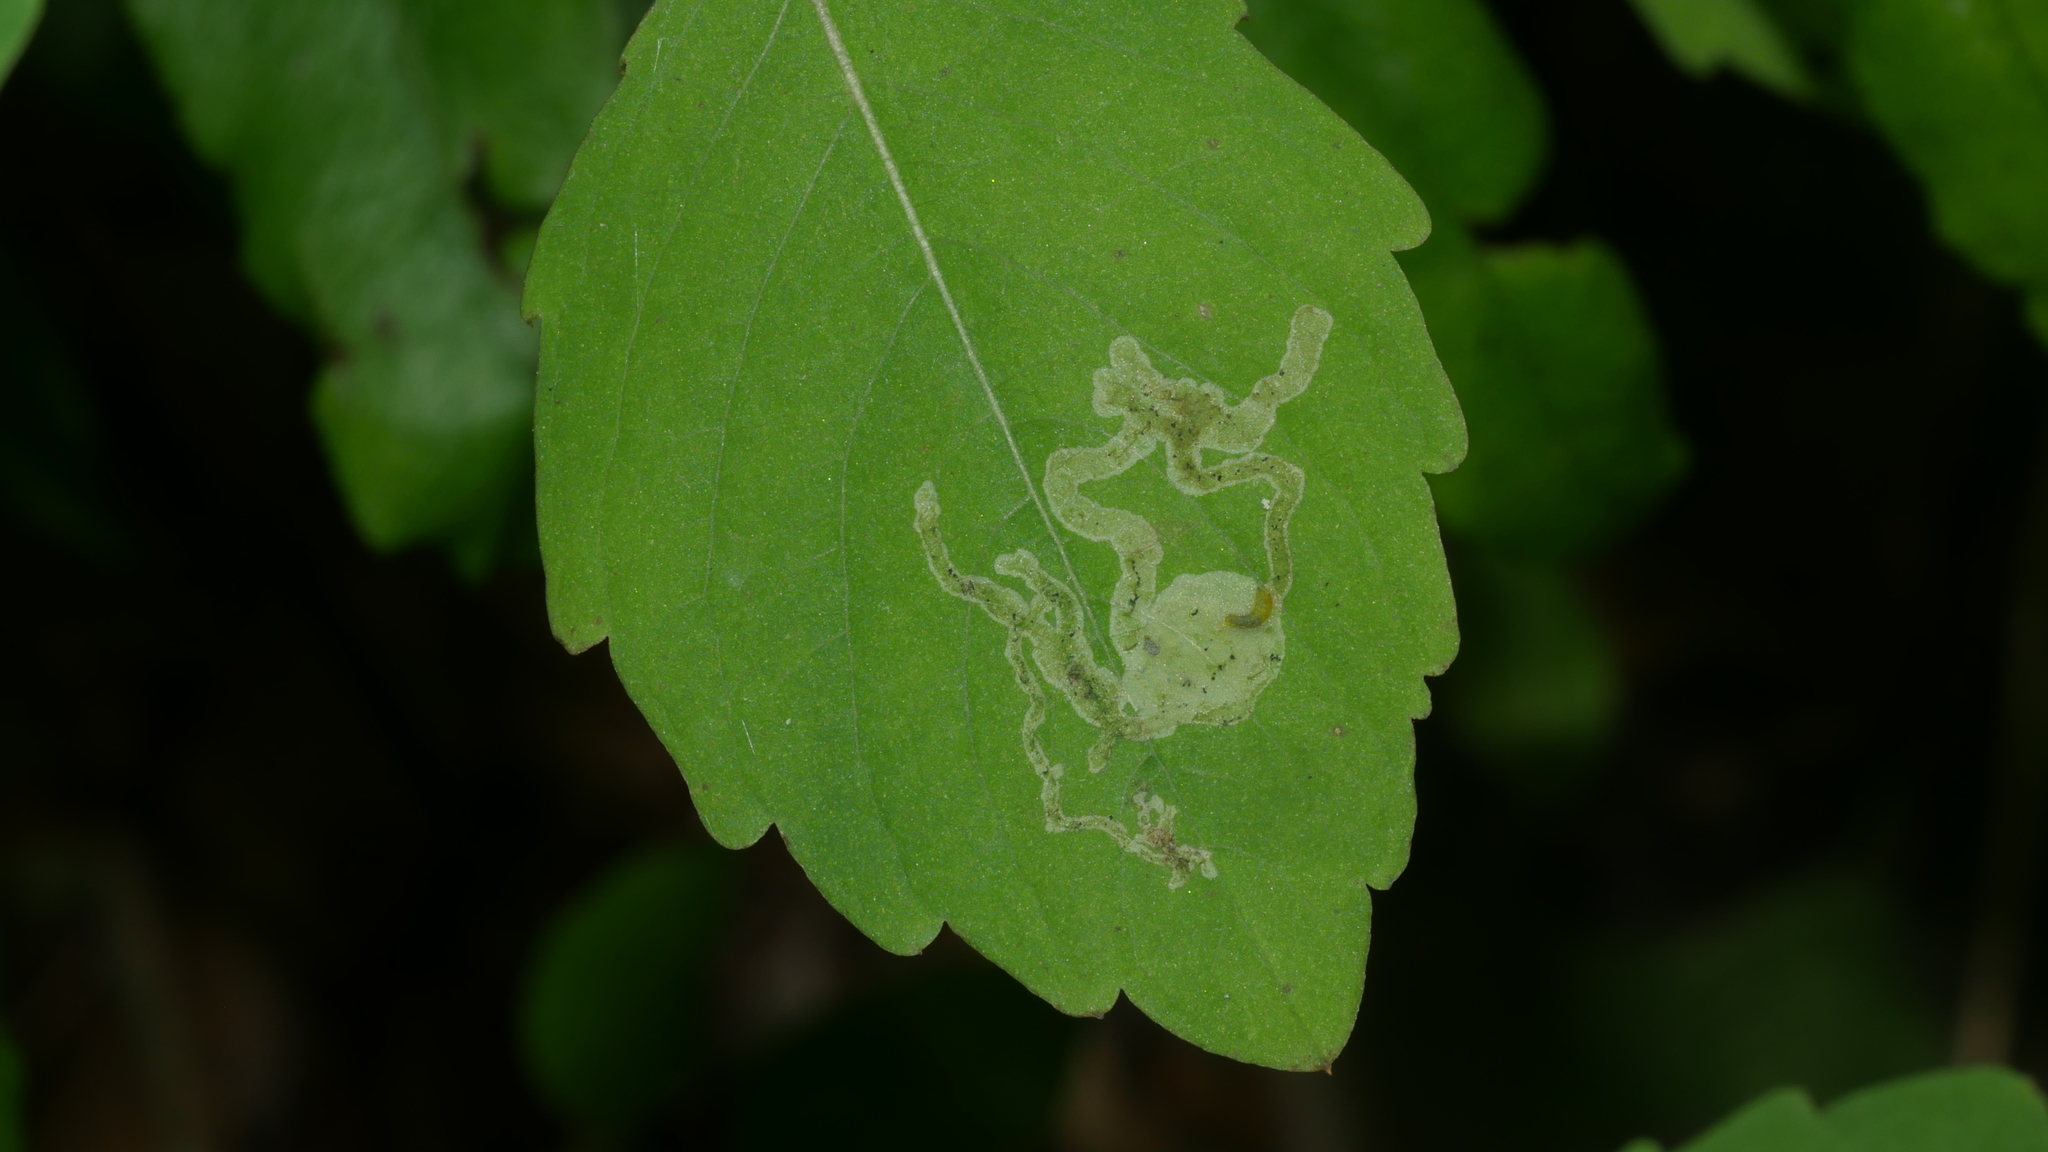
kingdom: Animalia
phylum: Arthropoda
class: Insecta
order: Diptera
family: Agromyzidae
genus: Phytoliriomyza
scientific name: Phytoliriomyza melampyga
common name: Jewelweed leaf-miner fly
